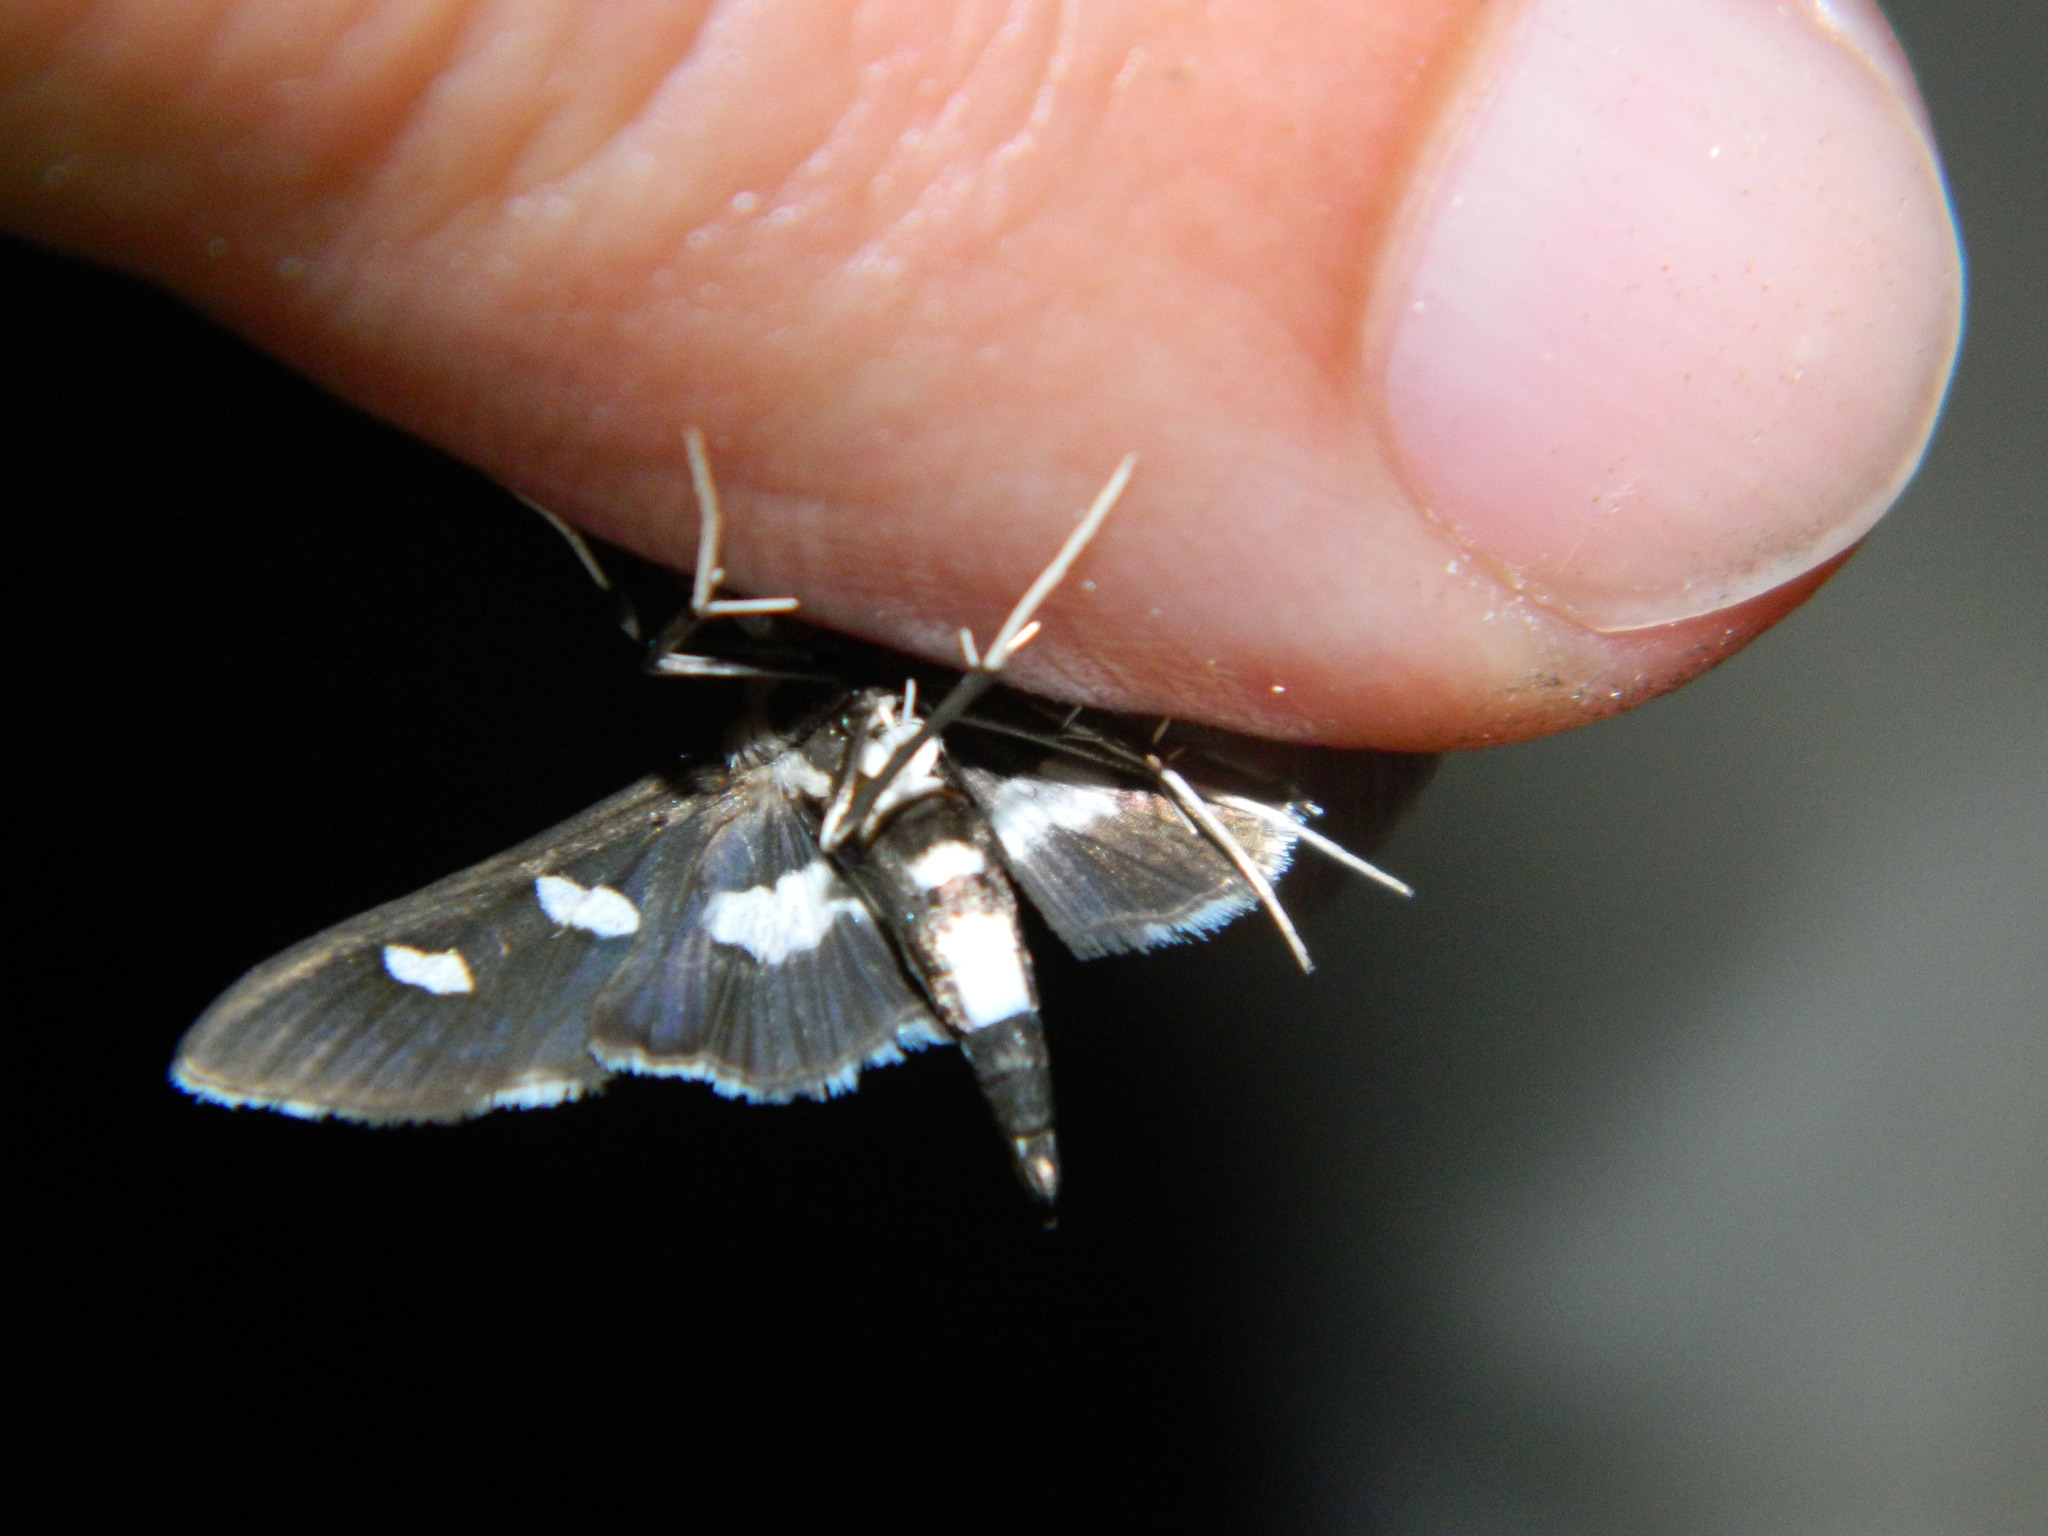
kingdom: Animalia
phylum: Arthropoda
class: Insecta
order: Lepidoptera
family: Crambidae
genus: Desmia
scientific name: Desmia funeralis
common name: Grape leaf folder moth
